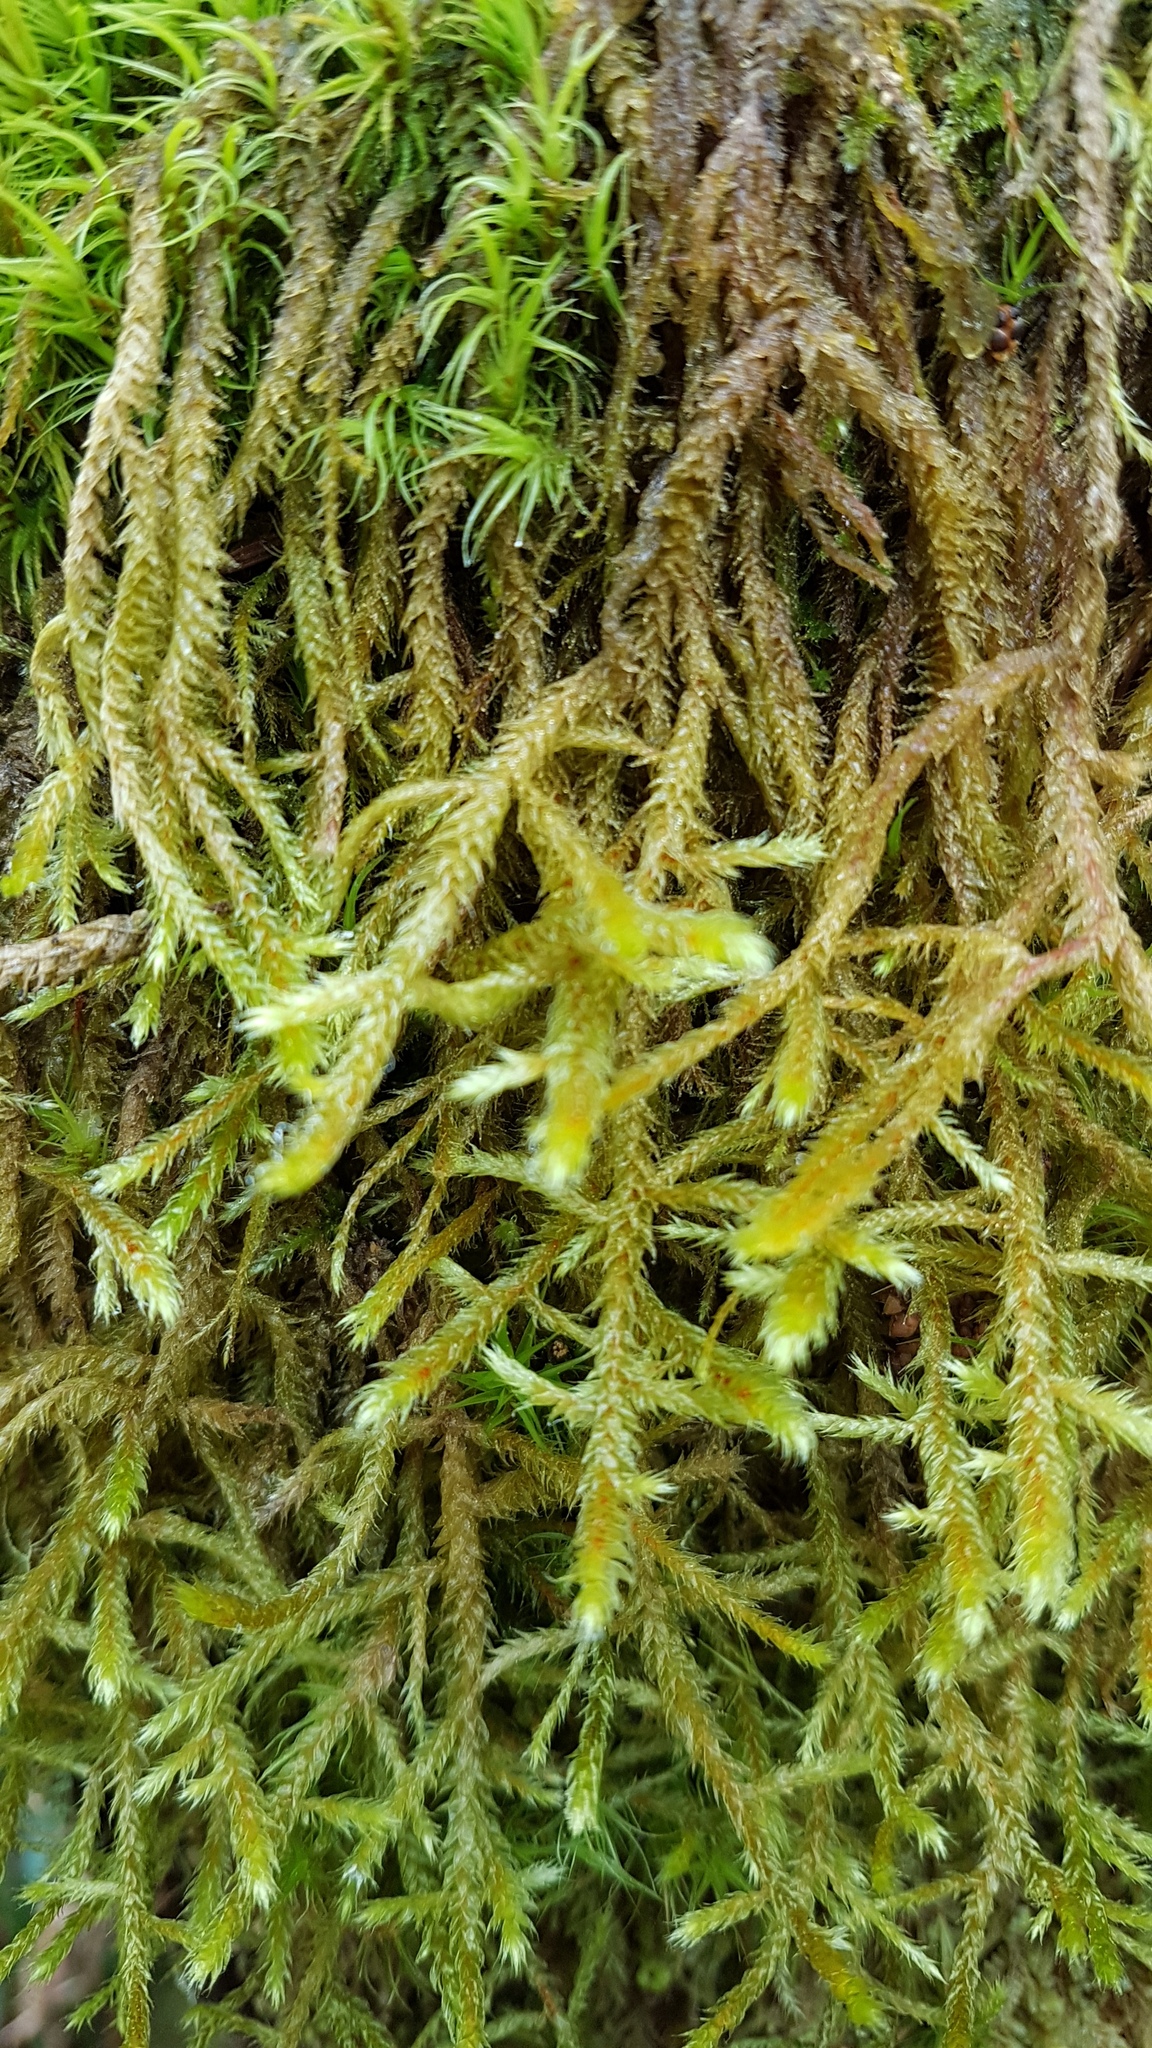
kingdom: Plantae
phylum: Bryophyta
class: Bryopsida
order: Hypnales
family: Antitrichiaceae
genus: Antitrichia
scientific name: Antitrichia curtipendula
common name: Pendulous wing-moss
